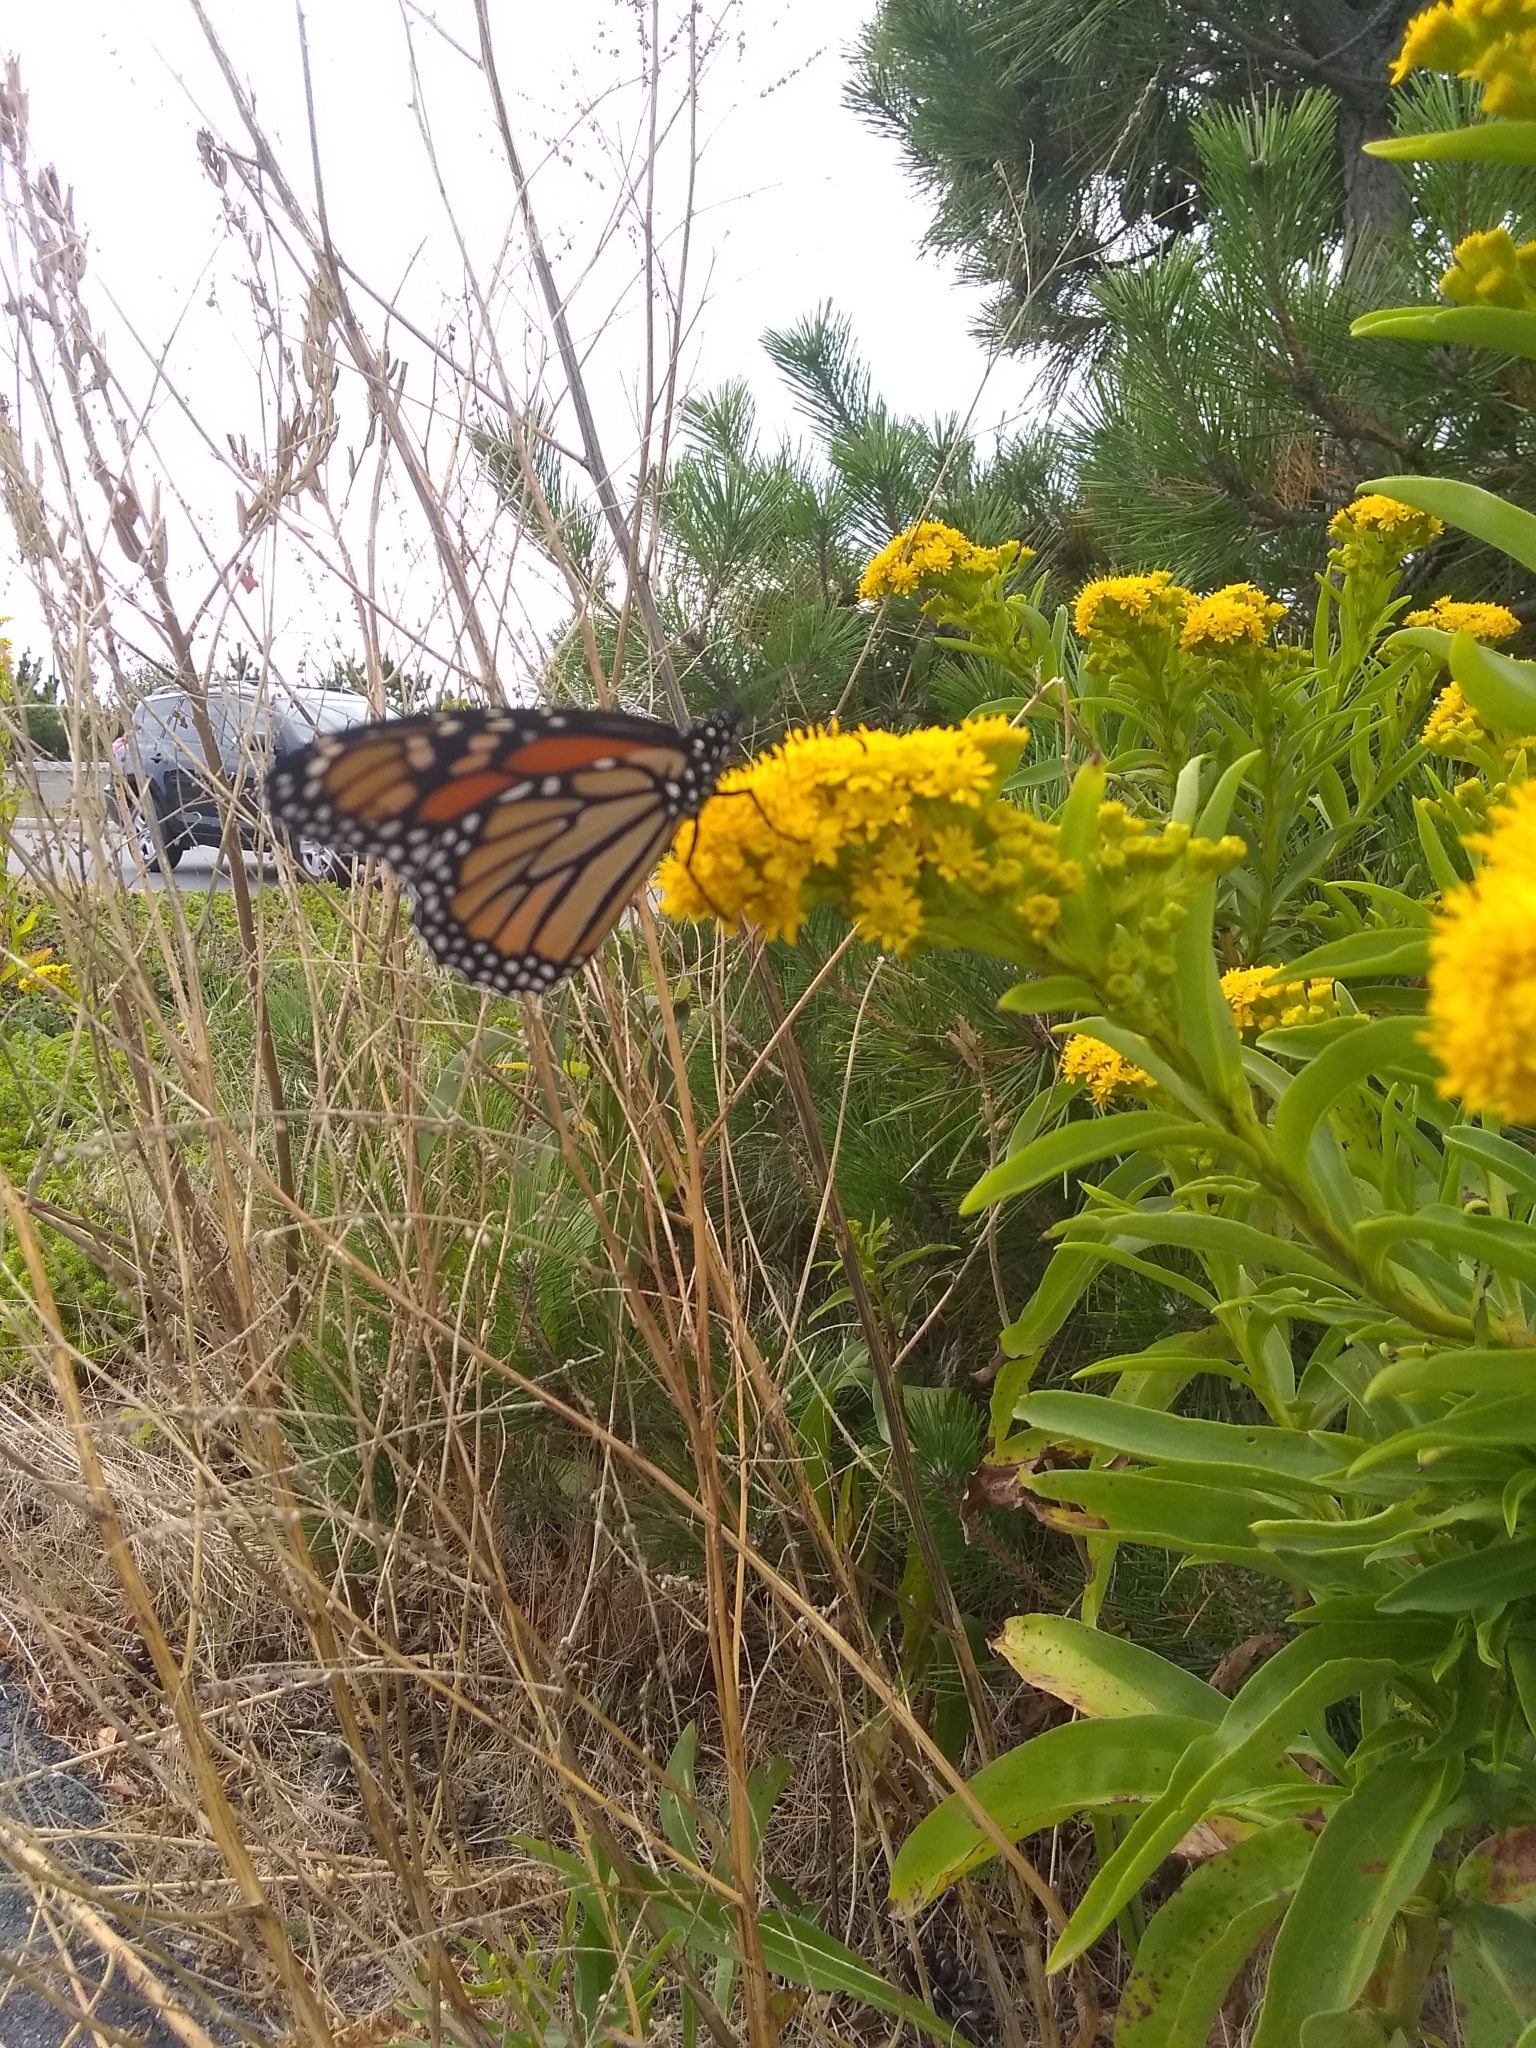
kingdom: Animalia
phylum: Arthropoda
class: Insecta
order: Lepidoptera
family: Nymphalidae
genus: Danaus
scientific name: Danaus plexippus
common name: Monarch
